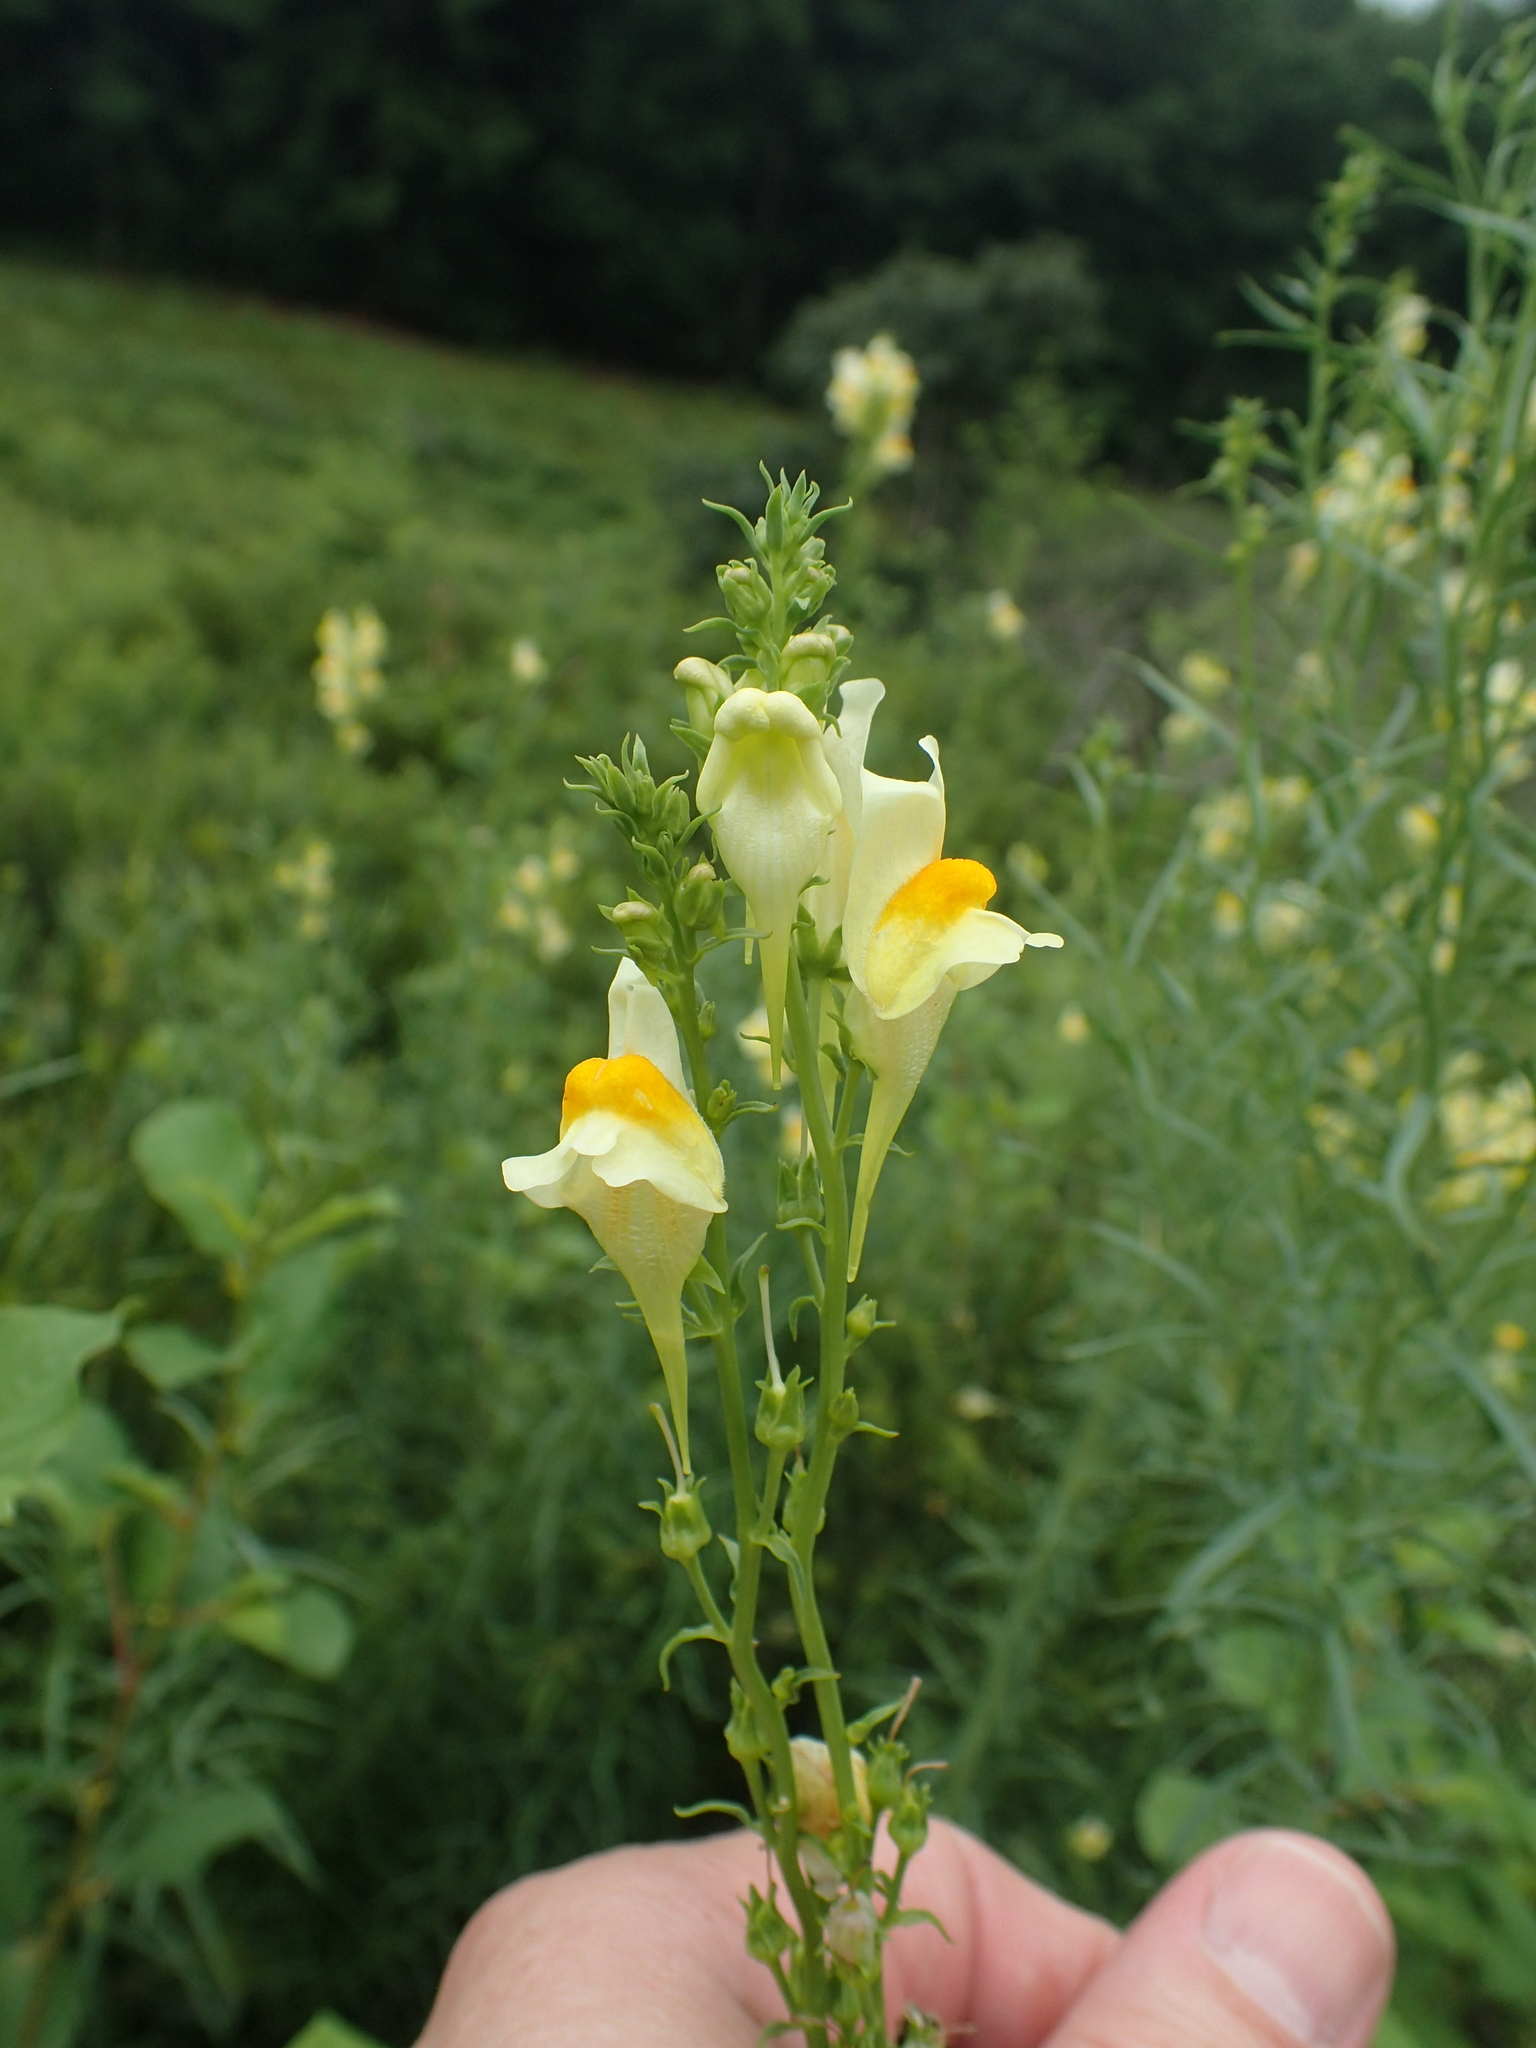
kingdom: Plantae
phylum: Tracheophyta
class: Magnoliopsida
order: Lamiales
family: Plantaginaceae
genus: Linaria
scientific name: Linaria vulgaris
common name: Butter and eggs
